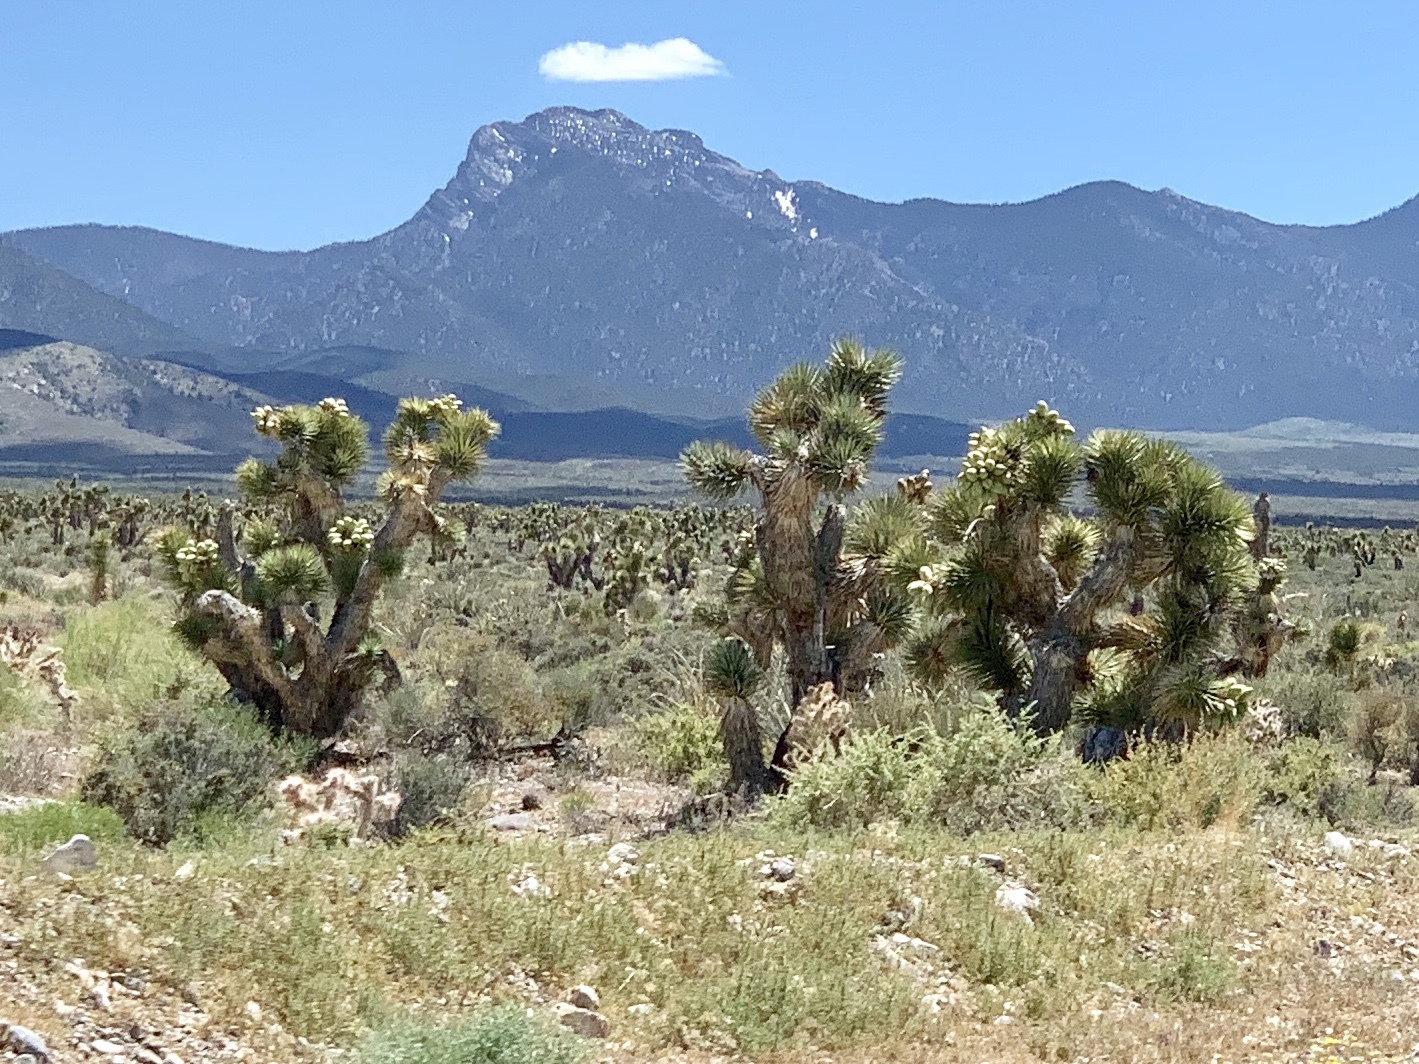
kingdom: Plantae
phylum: Tracheophyta
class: Liliopsida
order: Asparagales
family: Asparagaceae
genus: Yucca
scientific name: Yucca brevifolia
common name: Joshua tree
